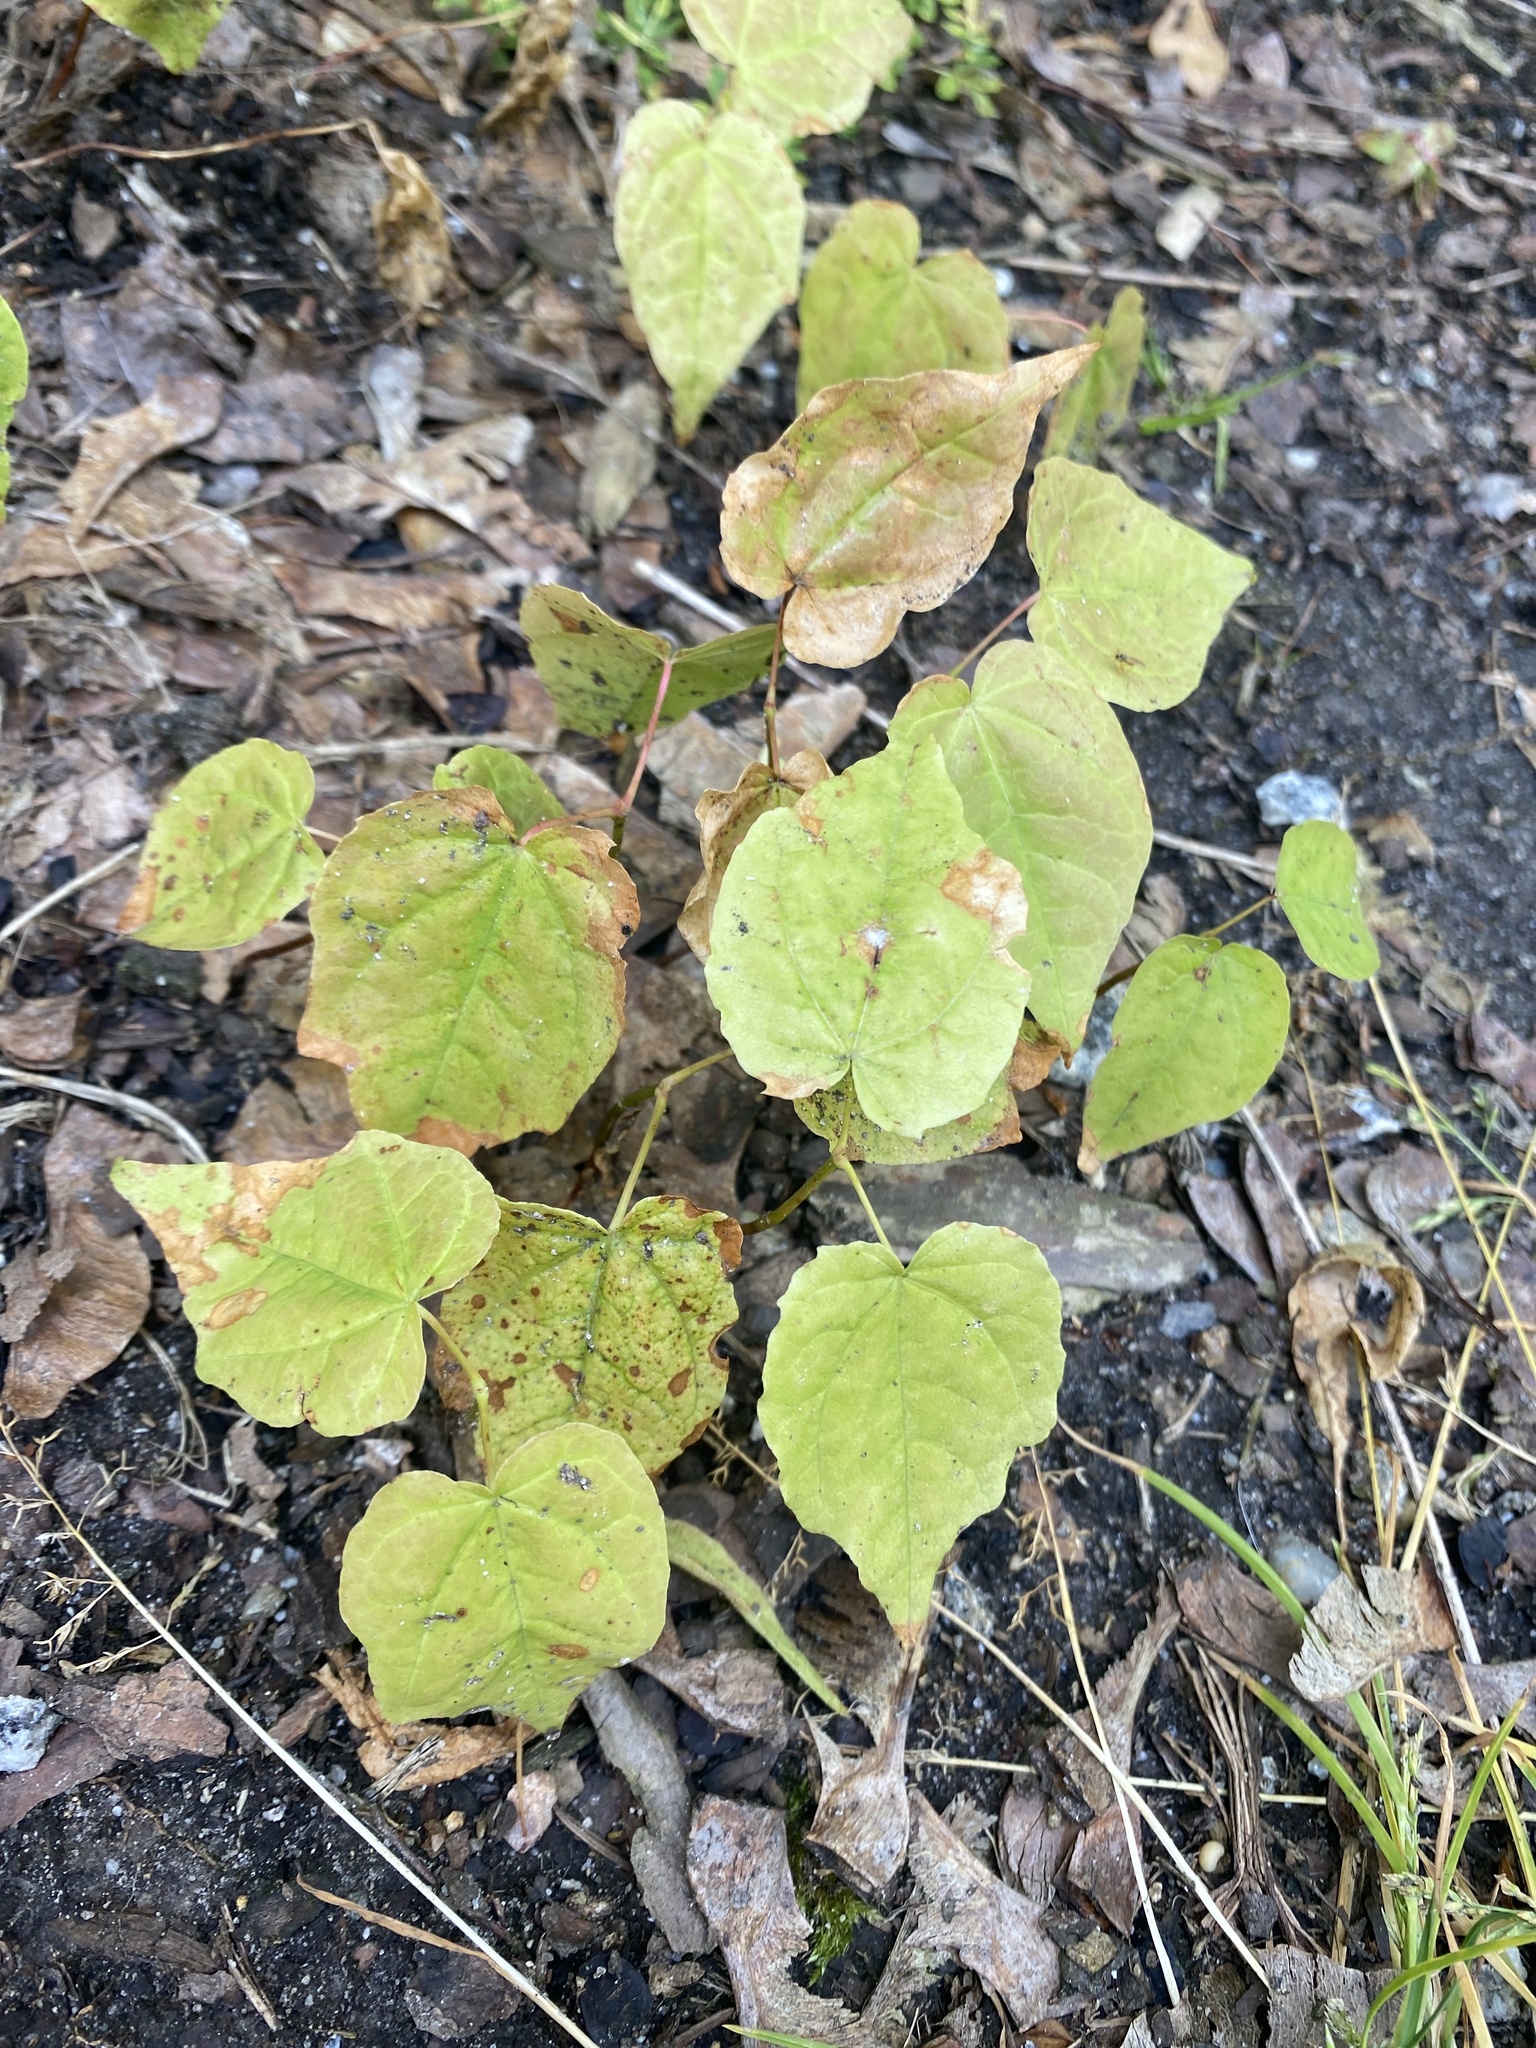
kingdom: Plantae
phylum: Tracheophyta
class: Magnoliopsida
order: Sapindales
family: Sapindaceae
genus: Acer
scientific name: Acer platanoides
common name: Norway maple
